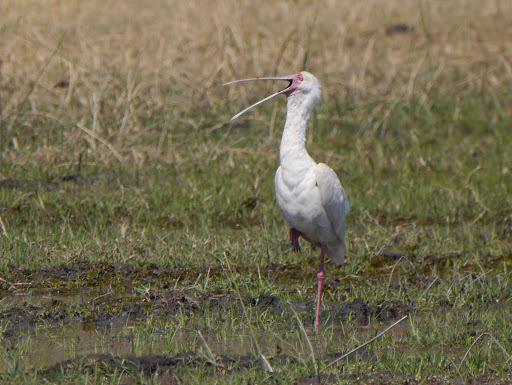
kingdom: Animalia
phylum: Chordata
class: Aves
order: Pelecaniformes
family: Threskiornithidae
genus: Platalea
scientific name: Platalea alba
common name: African spoonbill
